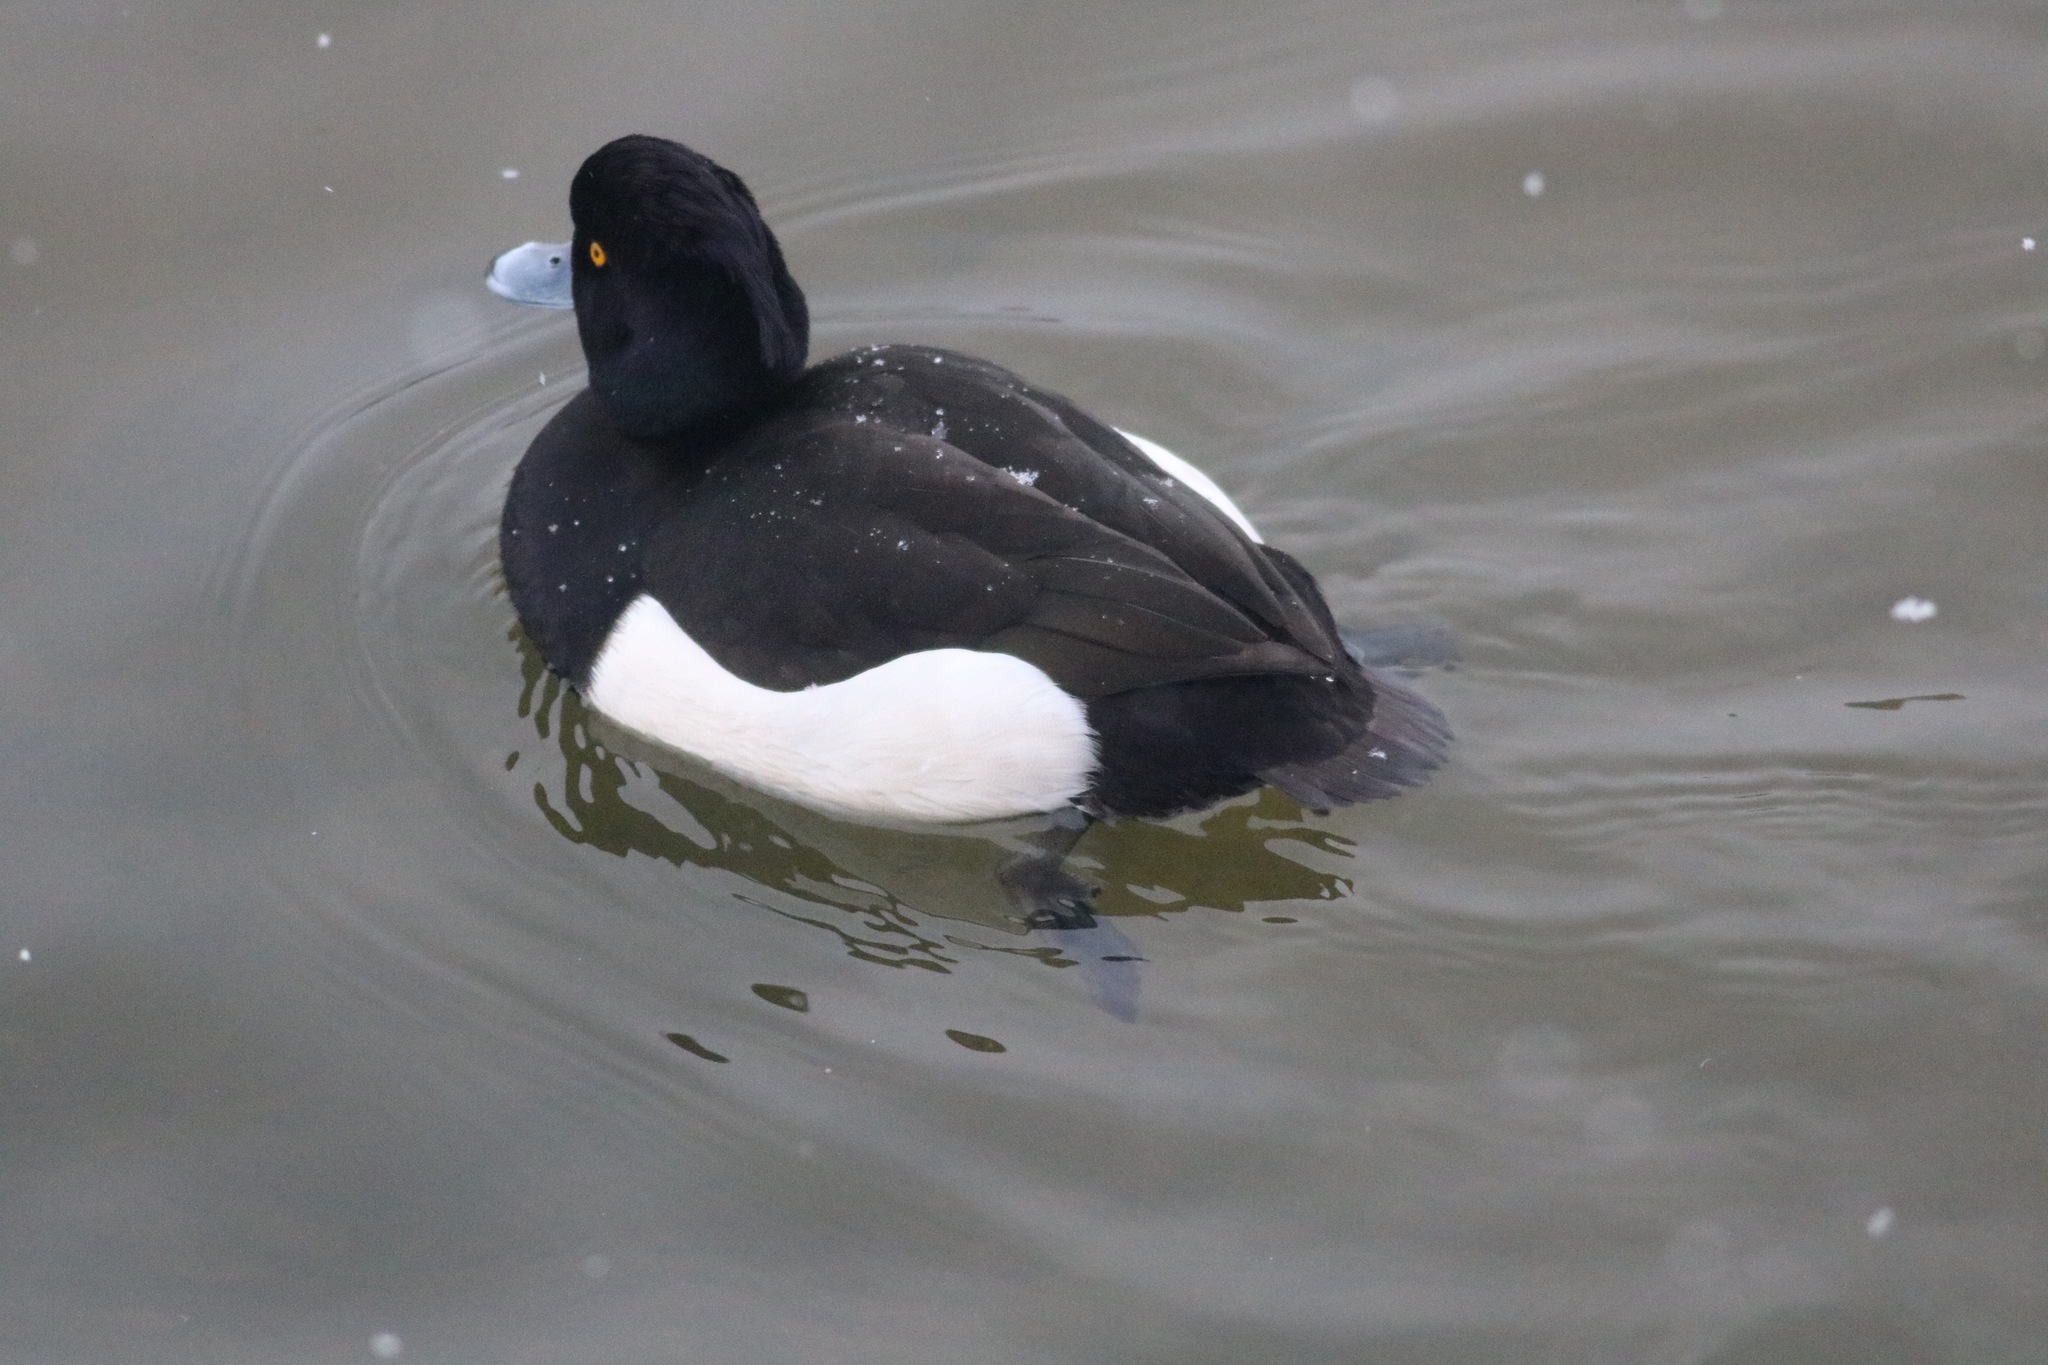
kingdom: Animalia
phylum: Chordata
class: Aves
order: Anseriformes
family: Anatidae
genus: Aythya
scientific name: Aythya fuligula
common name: Tufted duck
